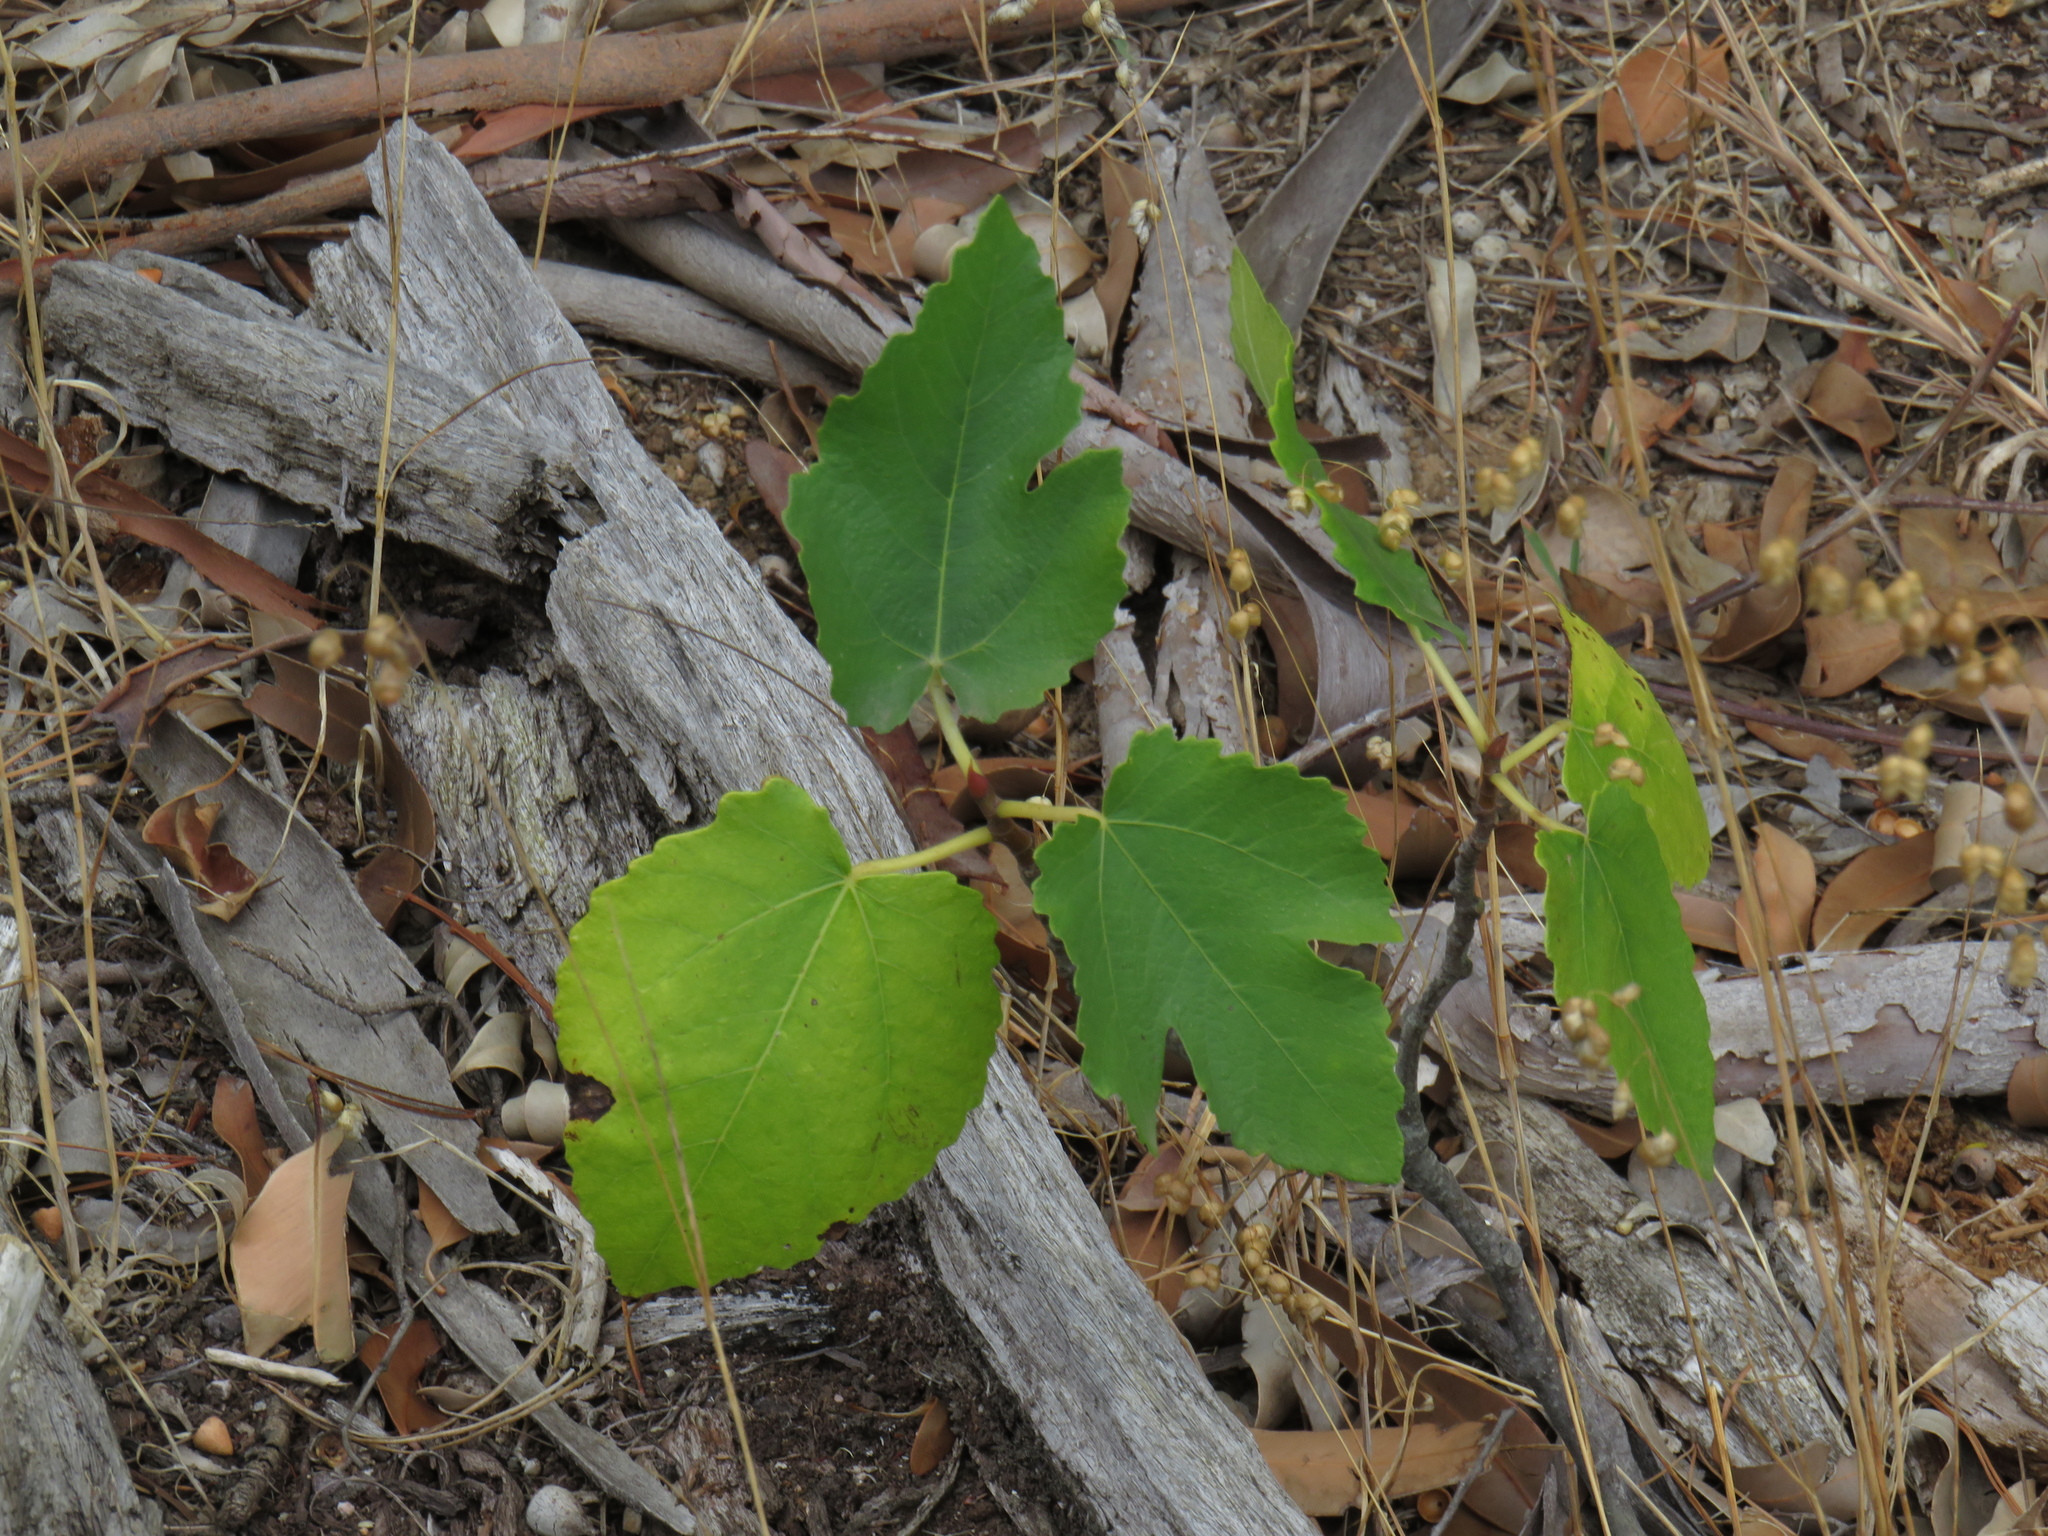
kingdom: Plantae
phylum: Tracheophyta
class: Magnoliopsida
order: Rosales
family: Moraceae
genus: Ficus
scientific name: Ficus carica
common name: Fig
